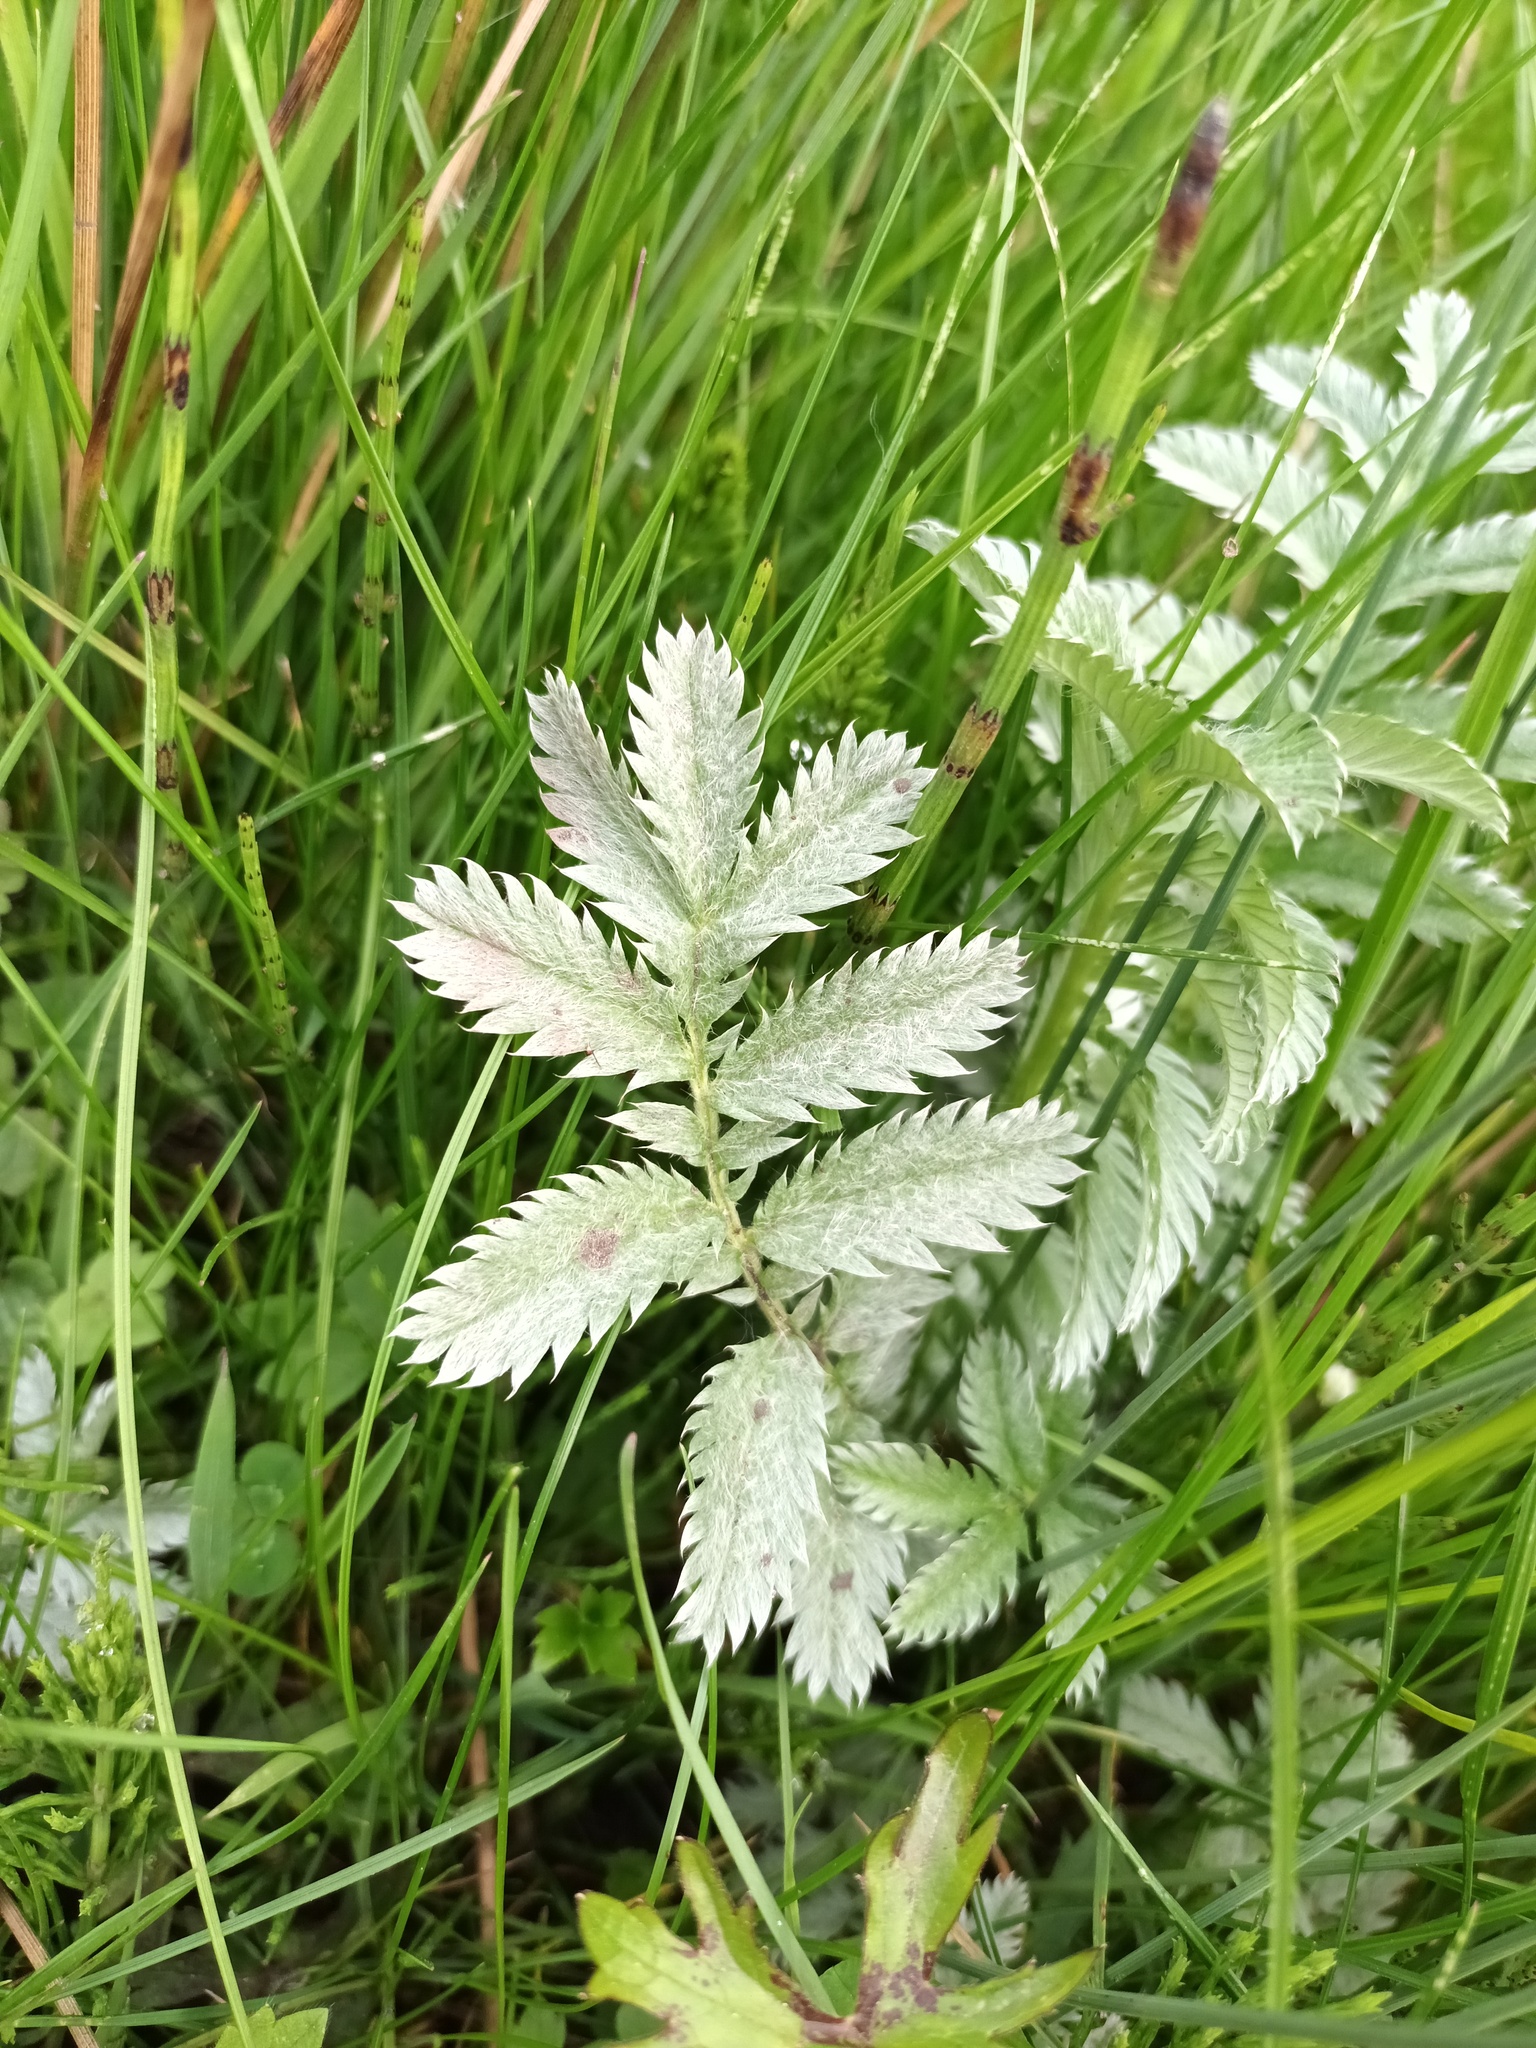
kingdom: Plantae
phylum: Tracheophyta
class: Magnoliopsida
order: Rosales
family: Rosaceae
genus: Argentina
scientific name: Argentina anserina
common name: Common silverweed
